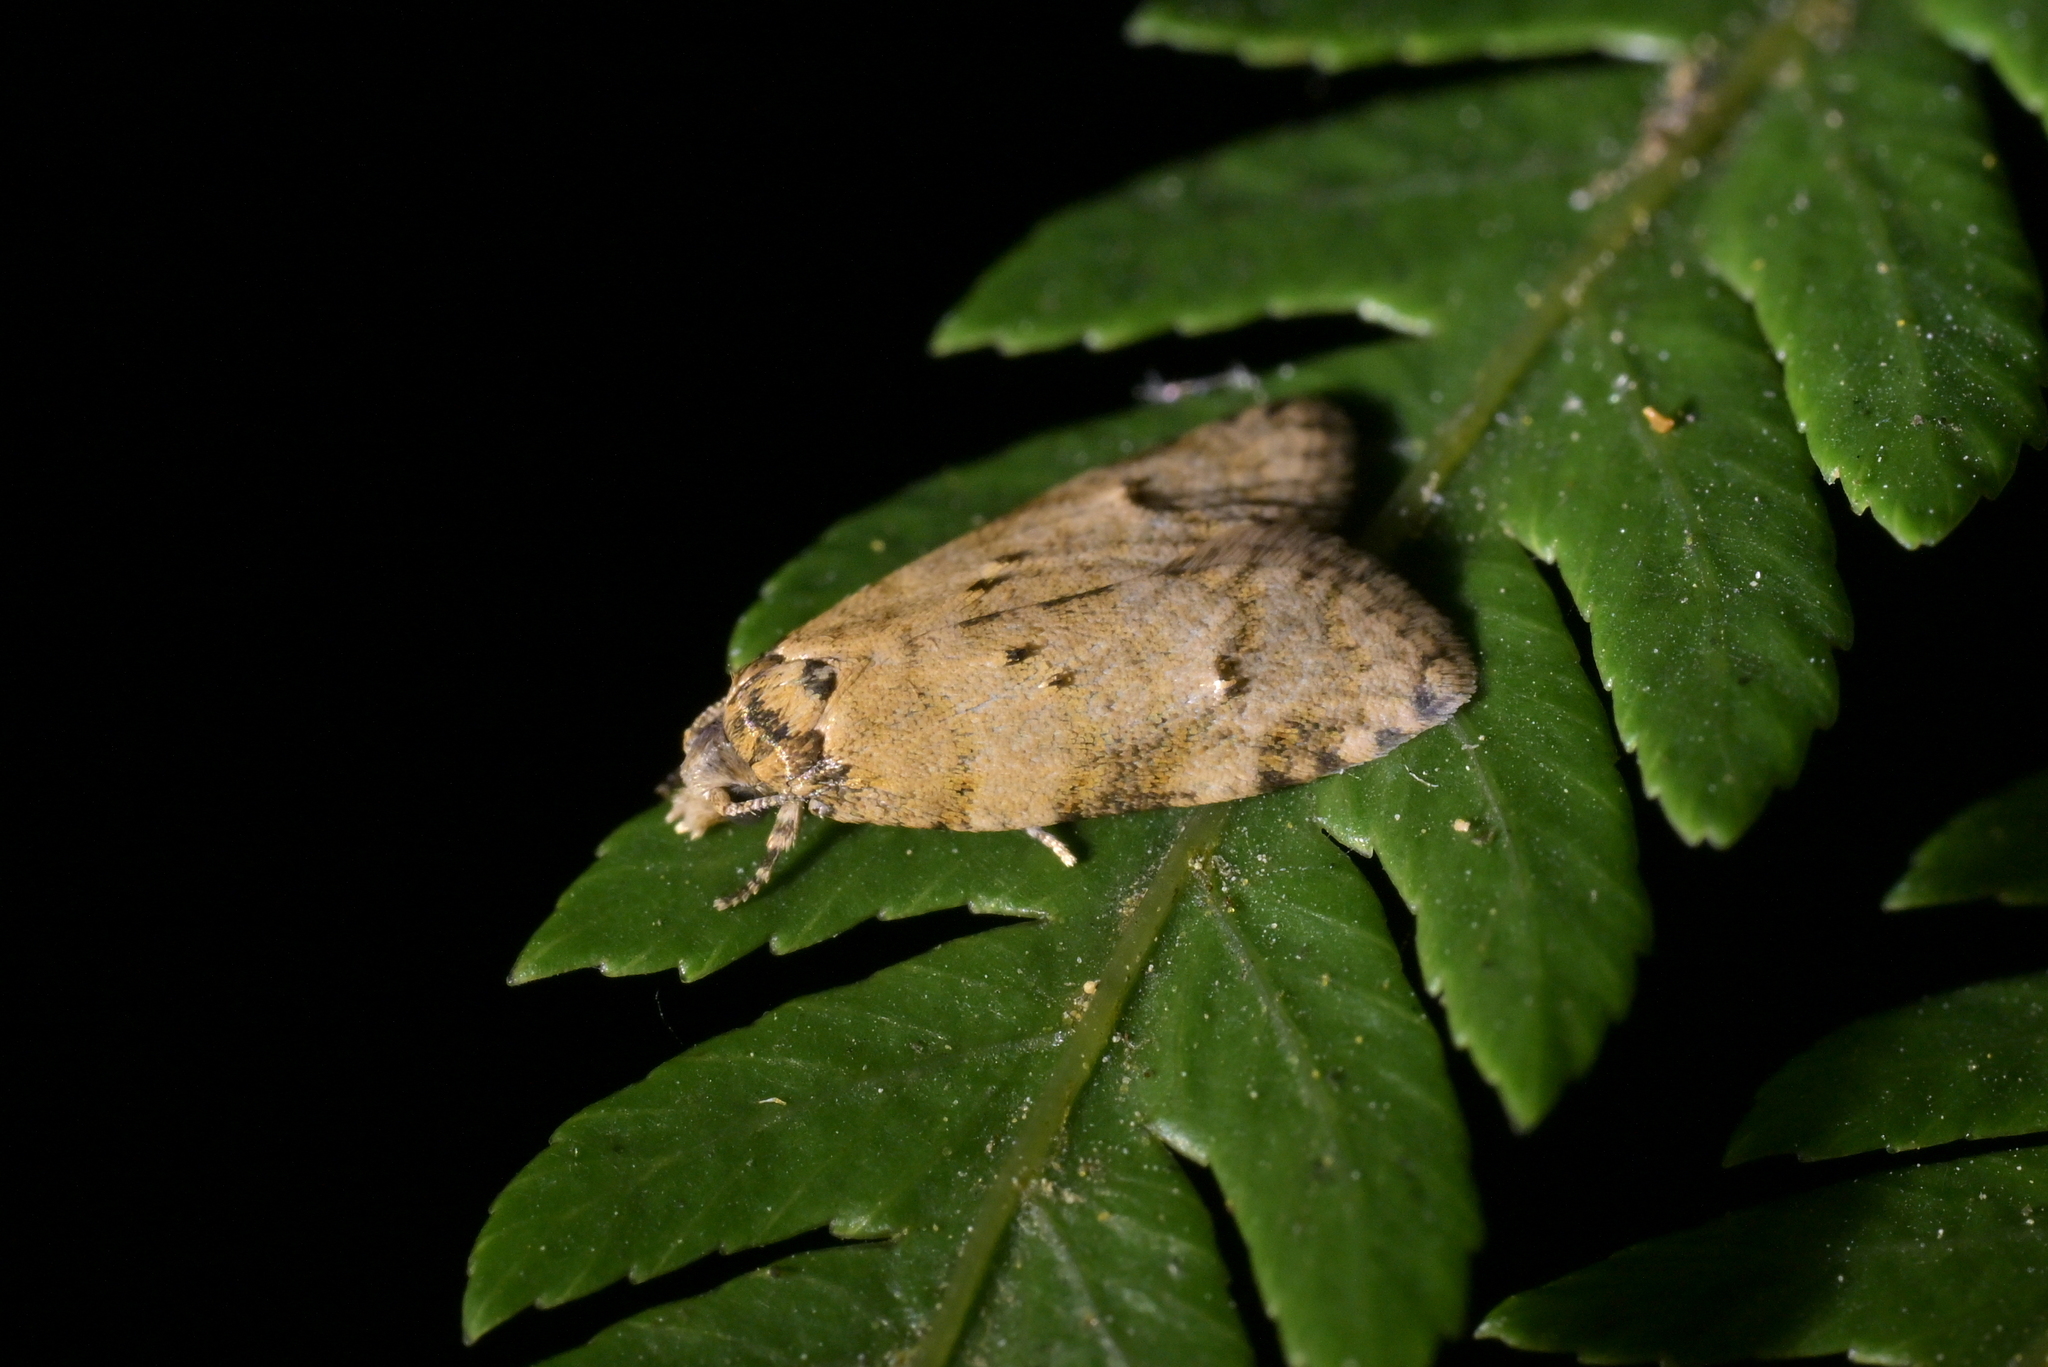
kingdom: Animalia
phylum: Arthropoda
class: Insecta
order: Lepidoptera
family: Tortricidae
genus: Dipterina
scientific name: Dipterina imbriferana
